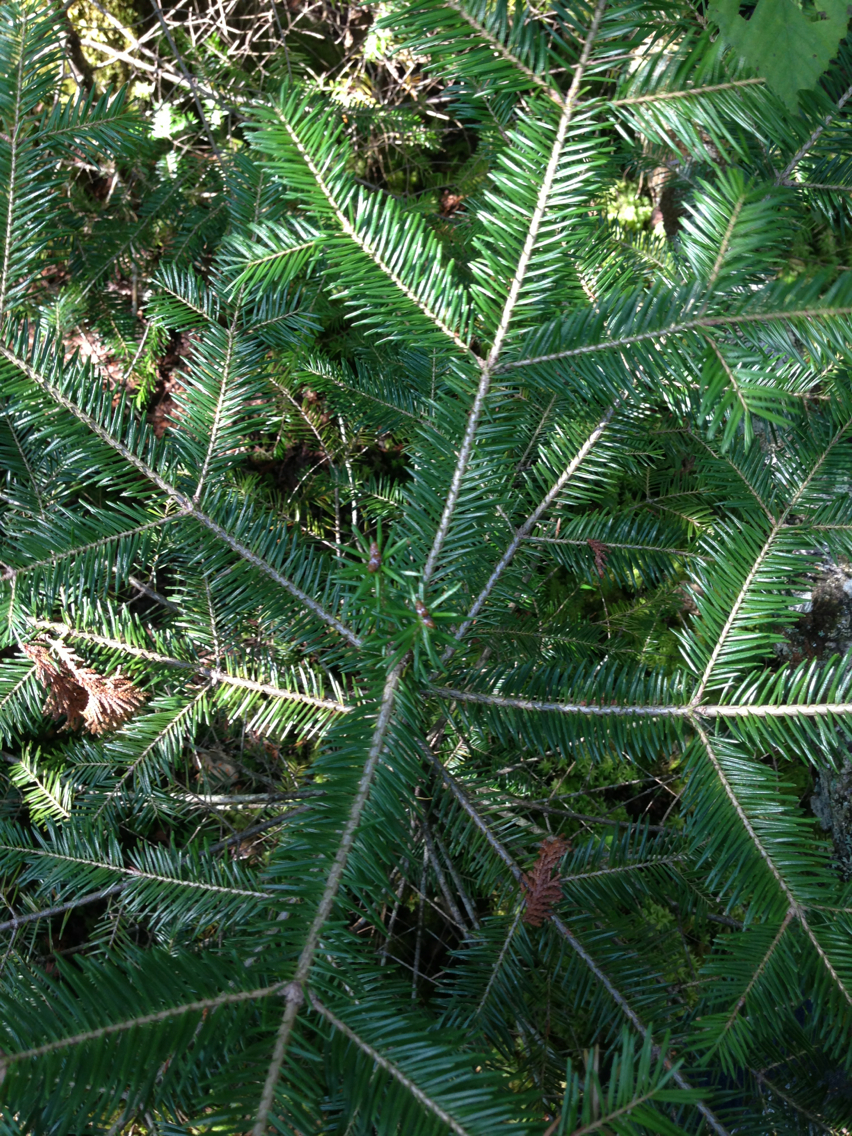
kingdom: Plantae
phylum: Tracheophyta
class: Pinopsida
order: Pinales
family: Pinaceae
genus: Abies
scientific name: Abies balsamea
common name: Balsam fir
